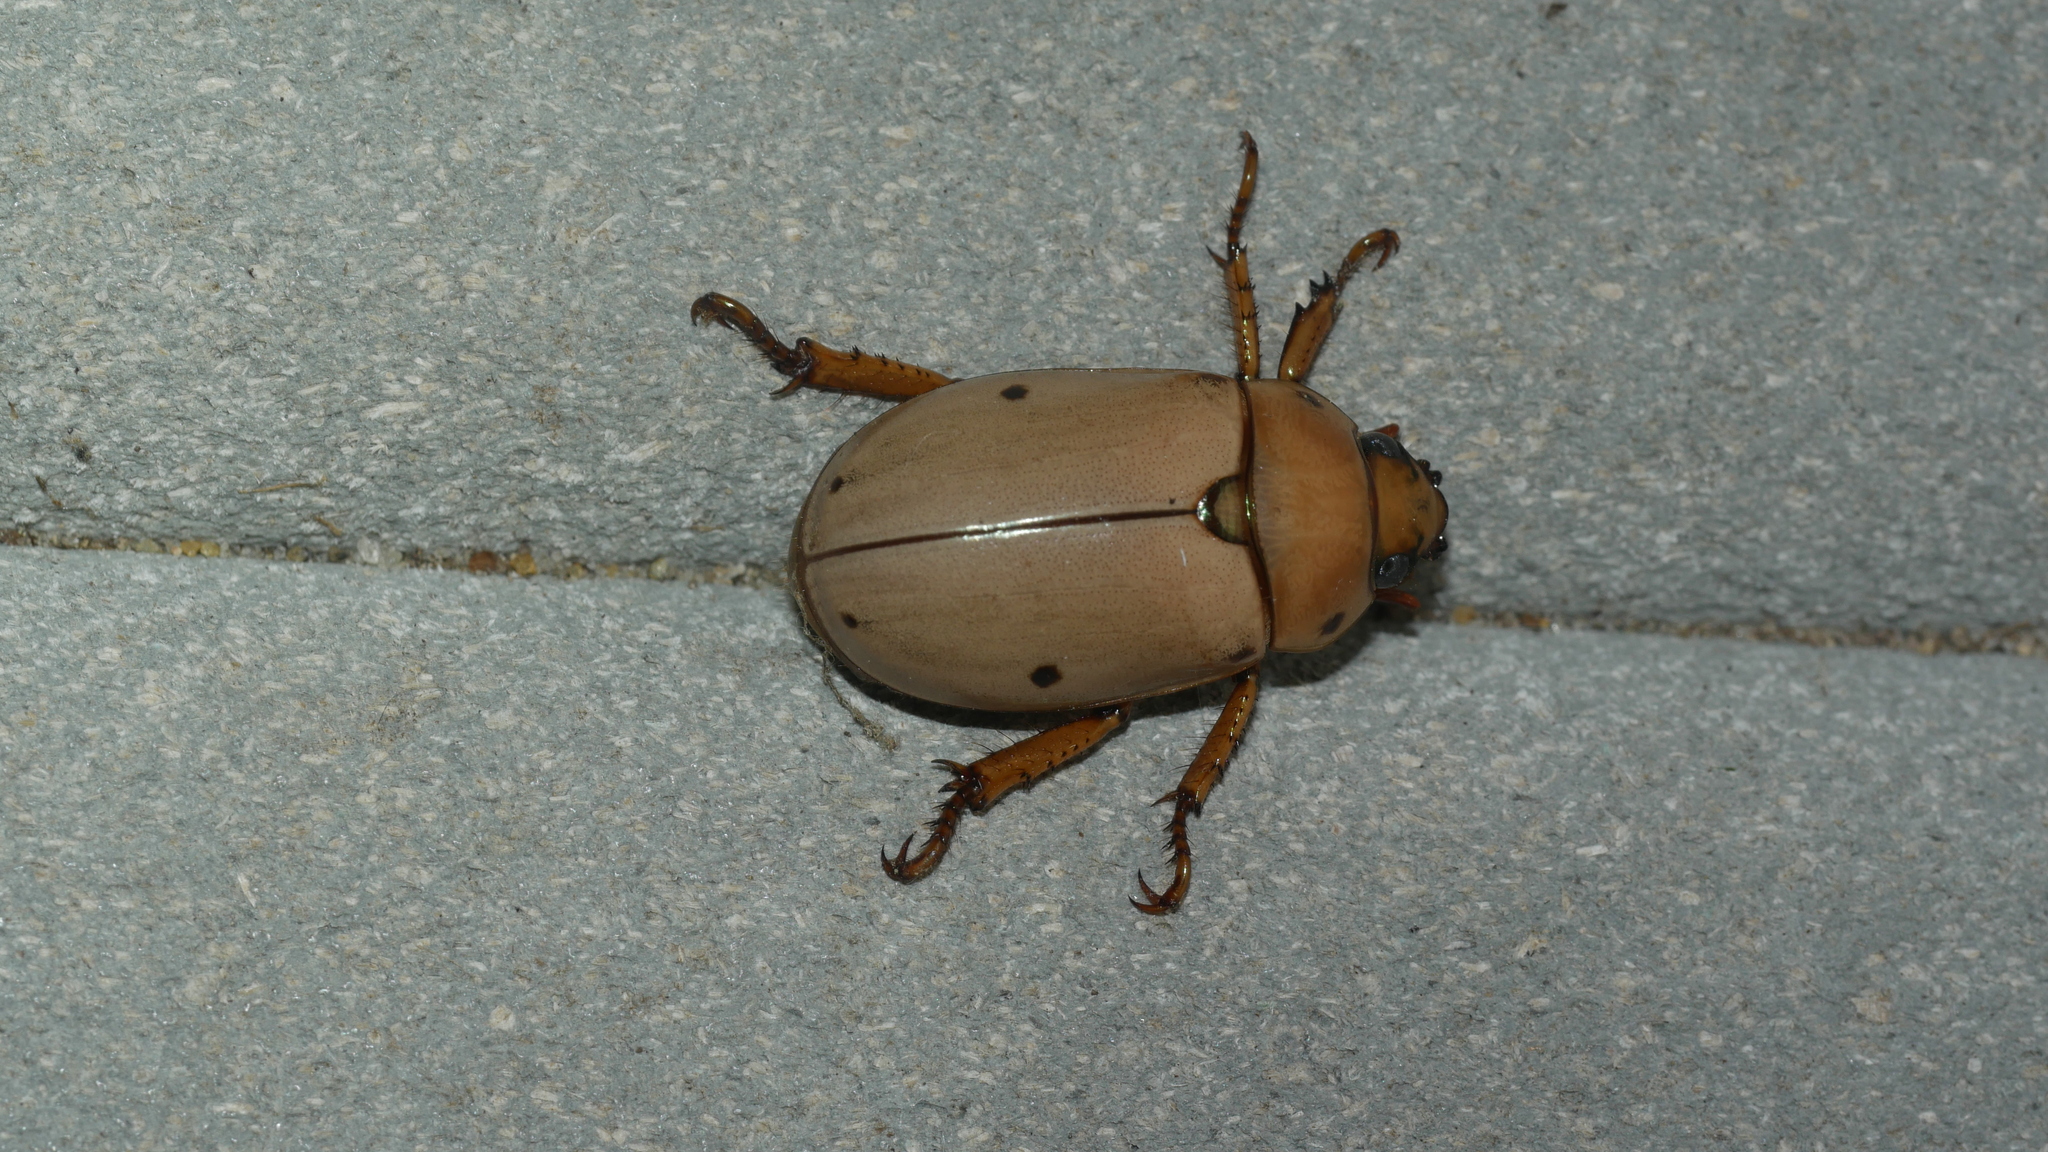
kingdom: Animalia
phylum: Arthropoda
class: Insecta
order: Coleoptera
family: Scarabaeidae
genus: Pelidnota
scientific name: Pelidnota punctata
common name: Grapevine beetle
